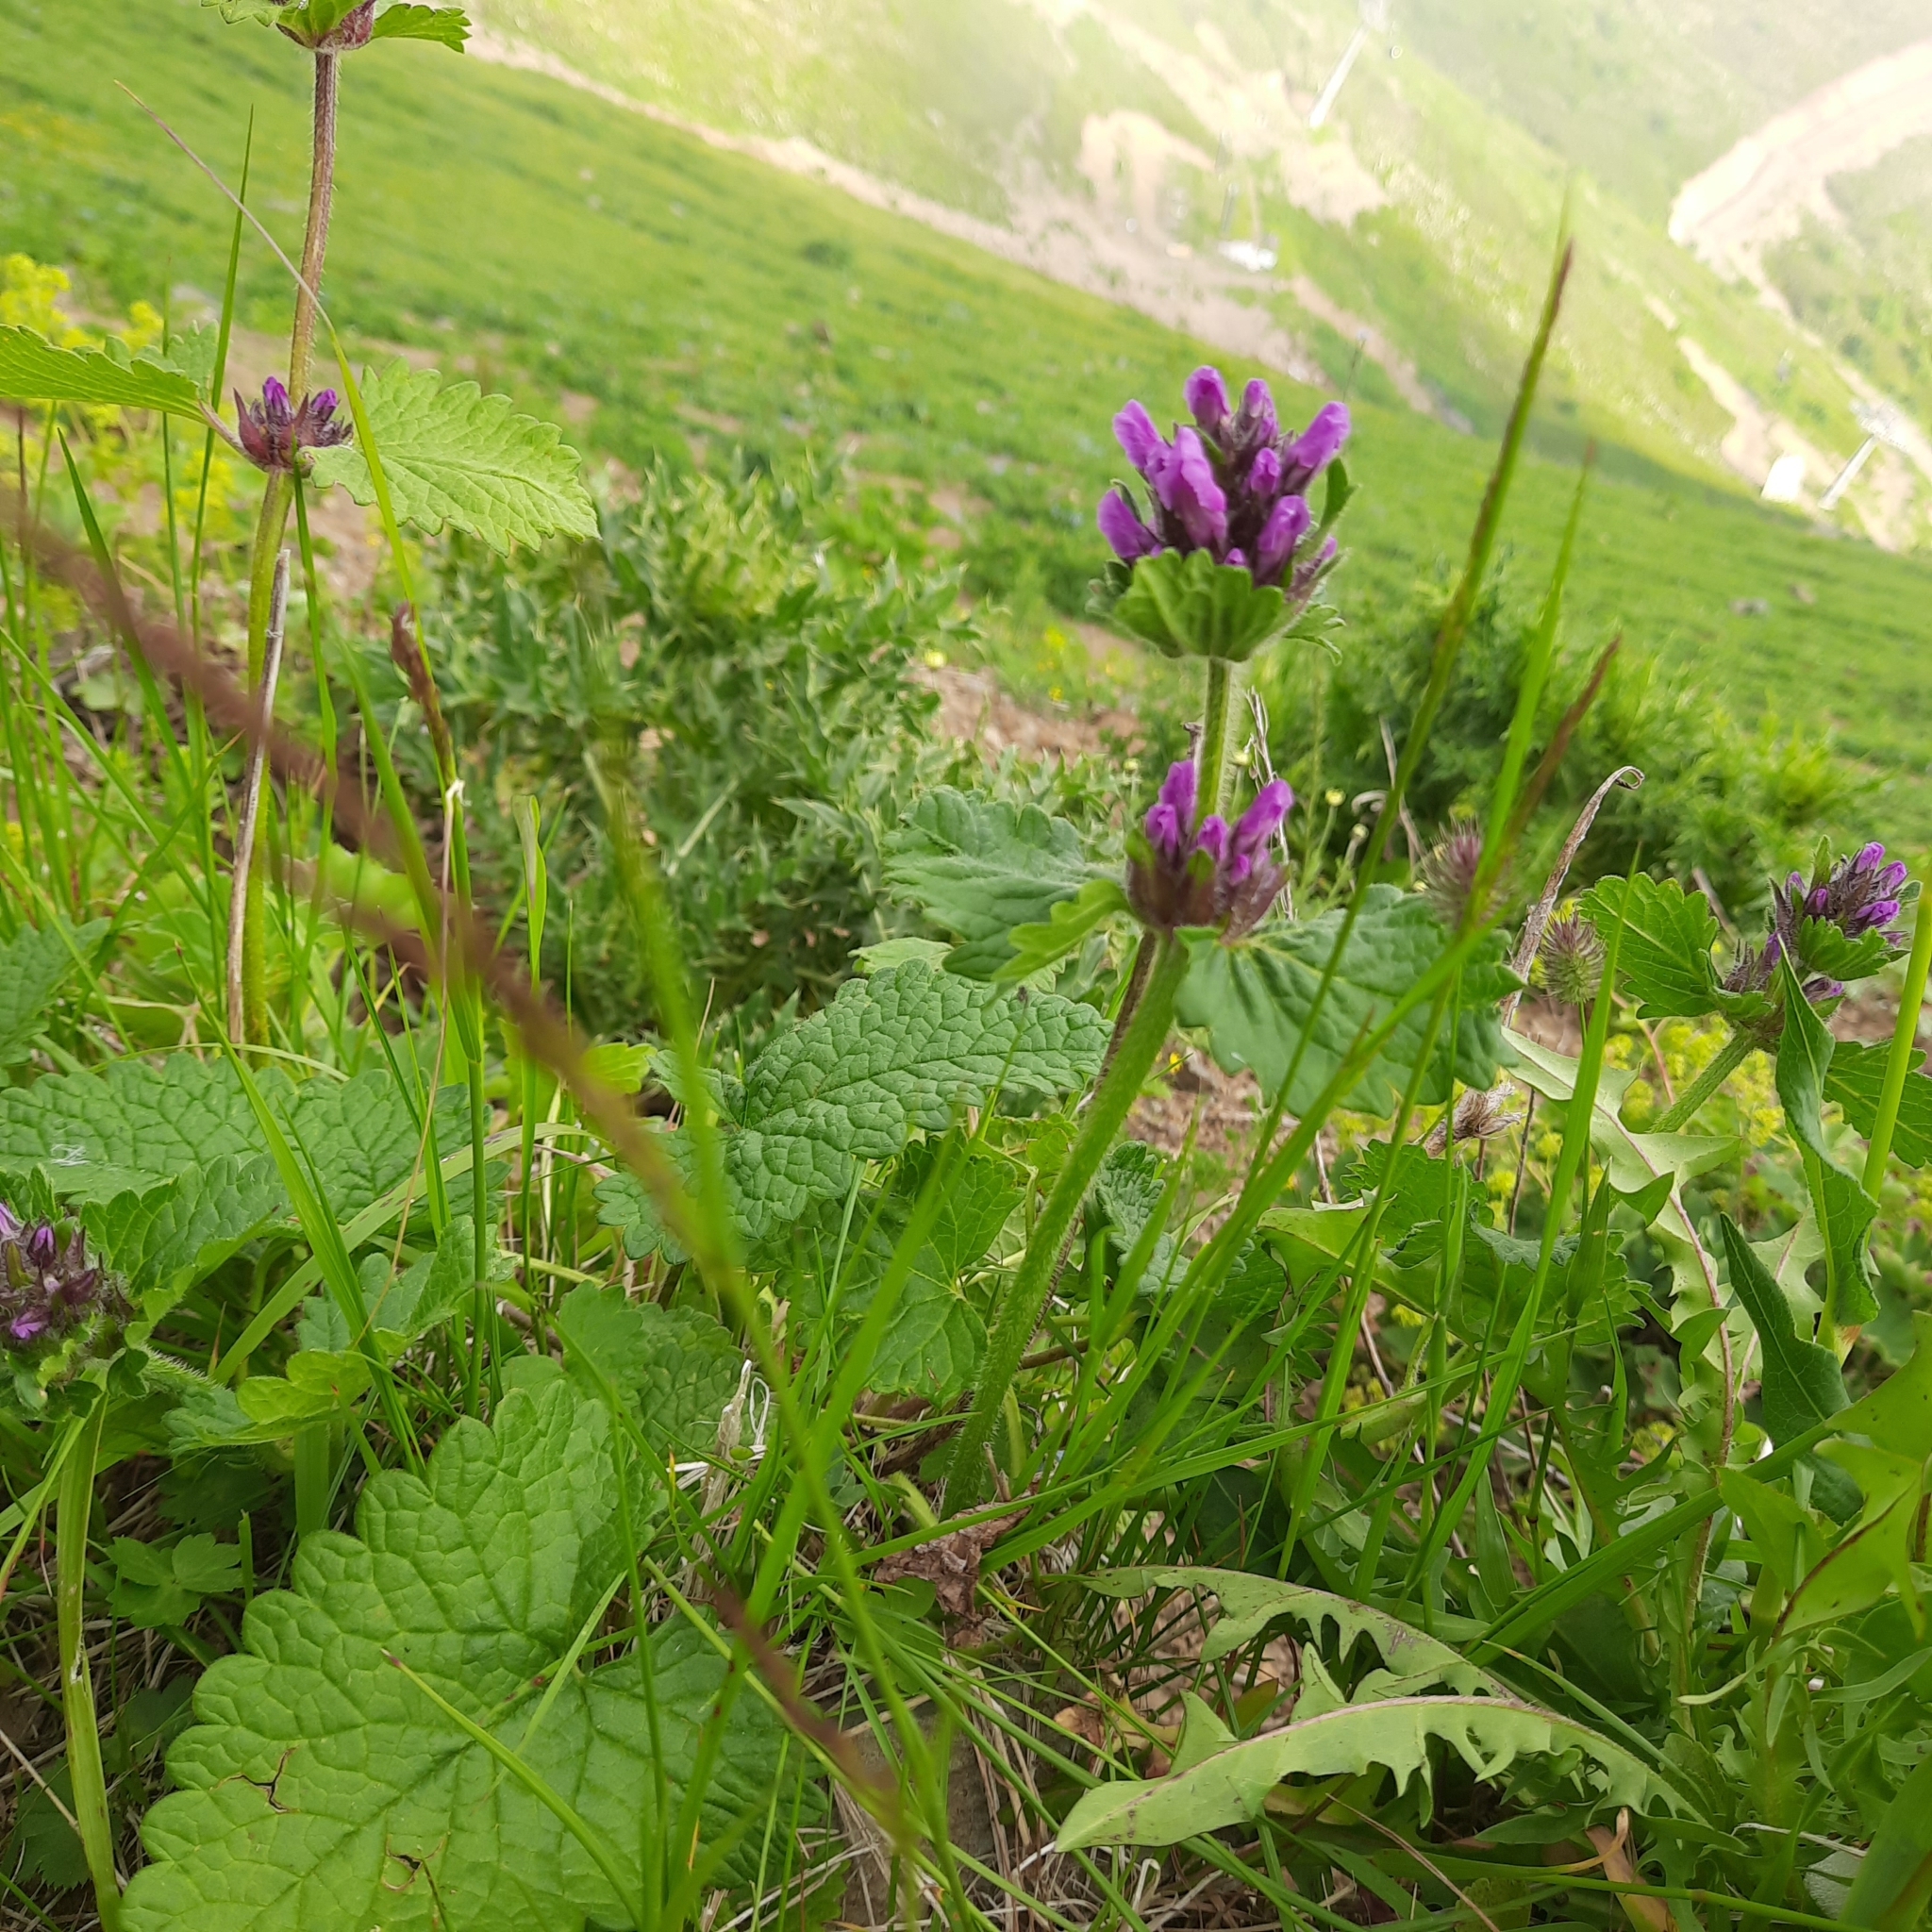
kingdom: Plantae
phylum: Tracheophyta
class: Magnoliopsida
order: Lamiales
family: Lamiaceae
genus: Betonica
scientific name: Betonica macrantha
